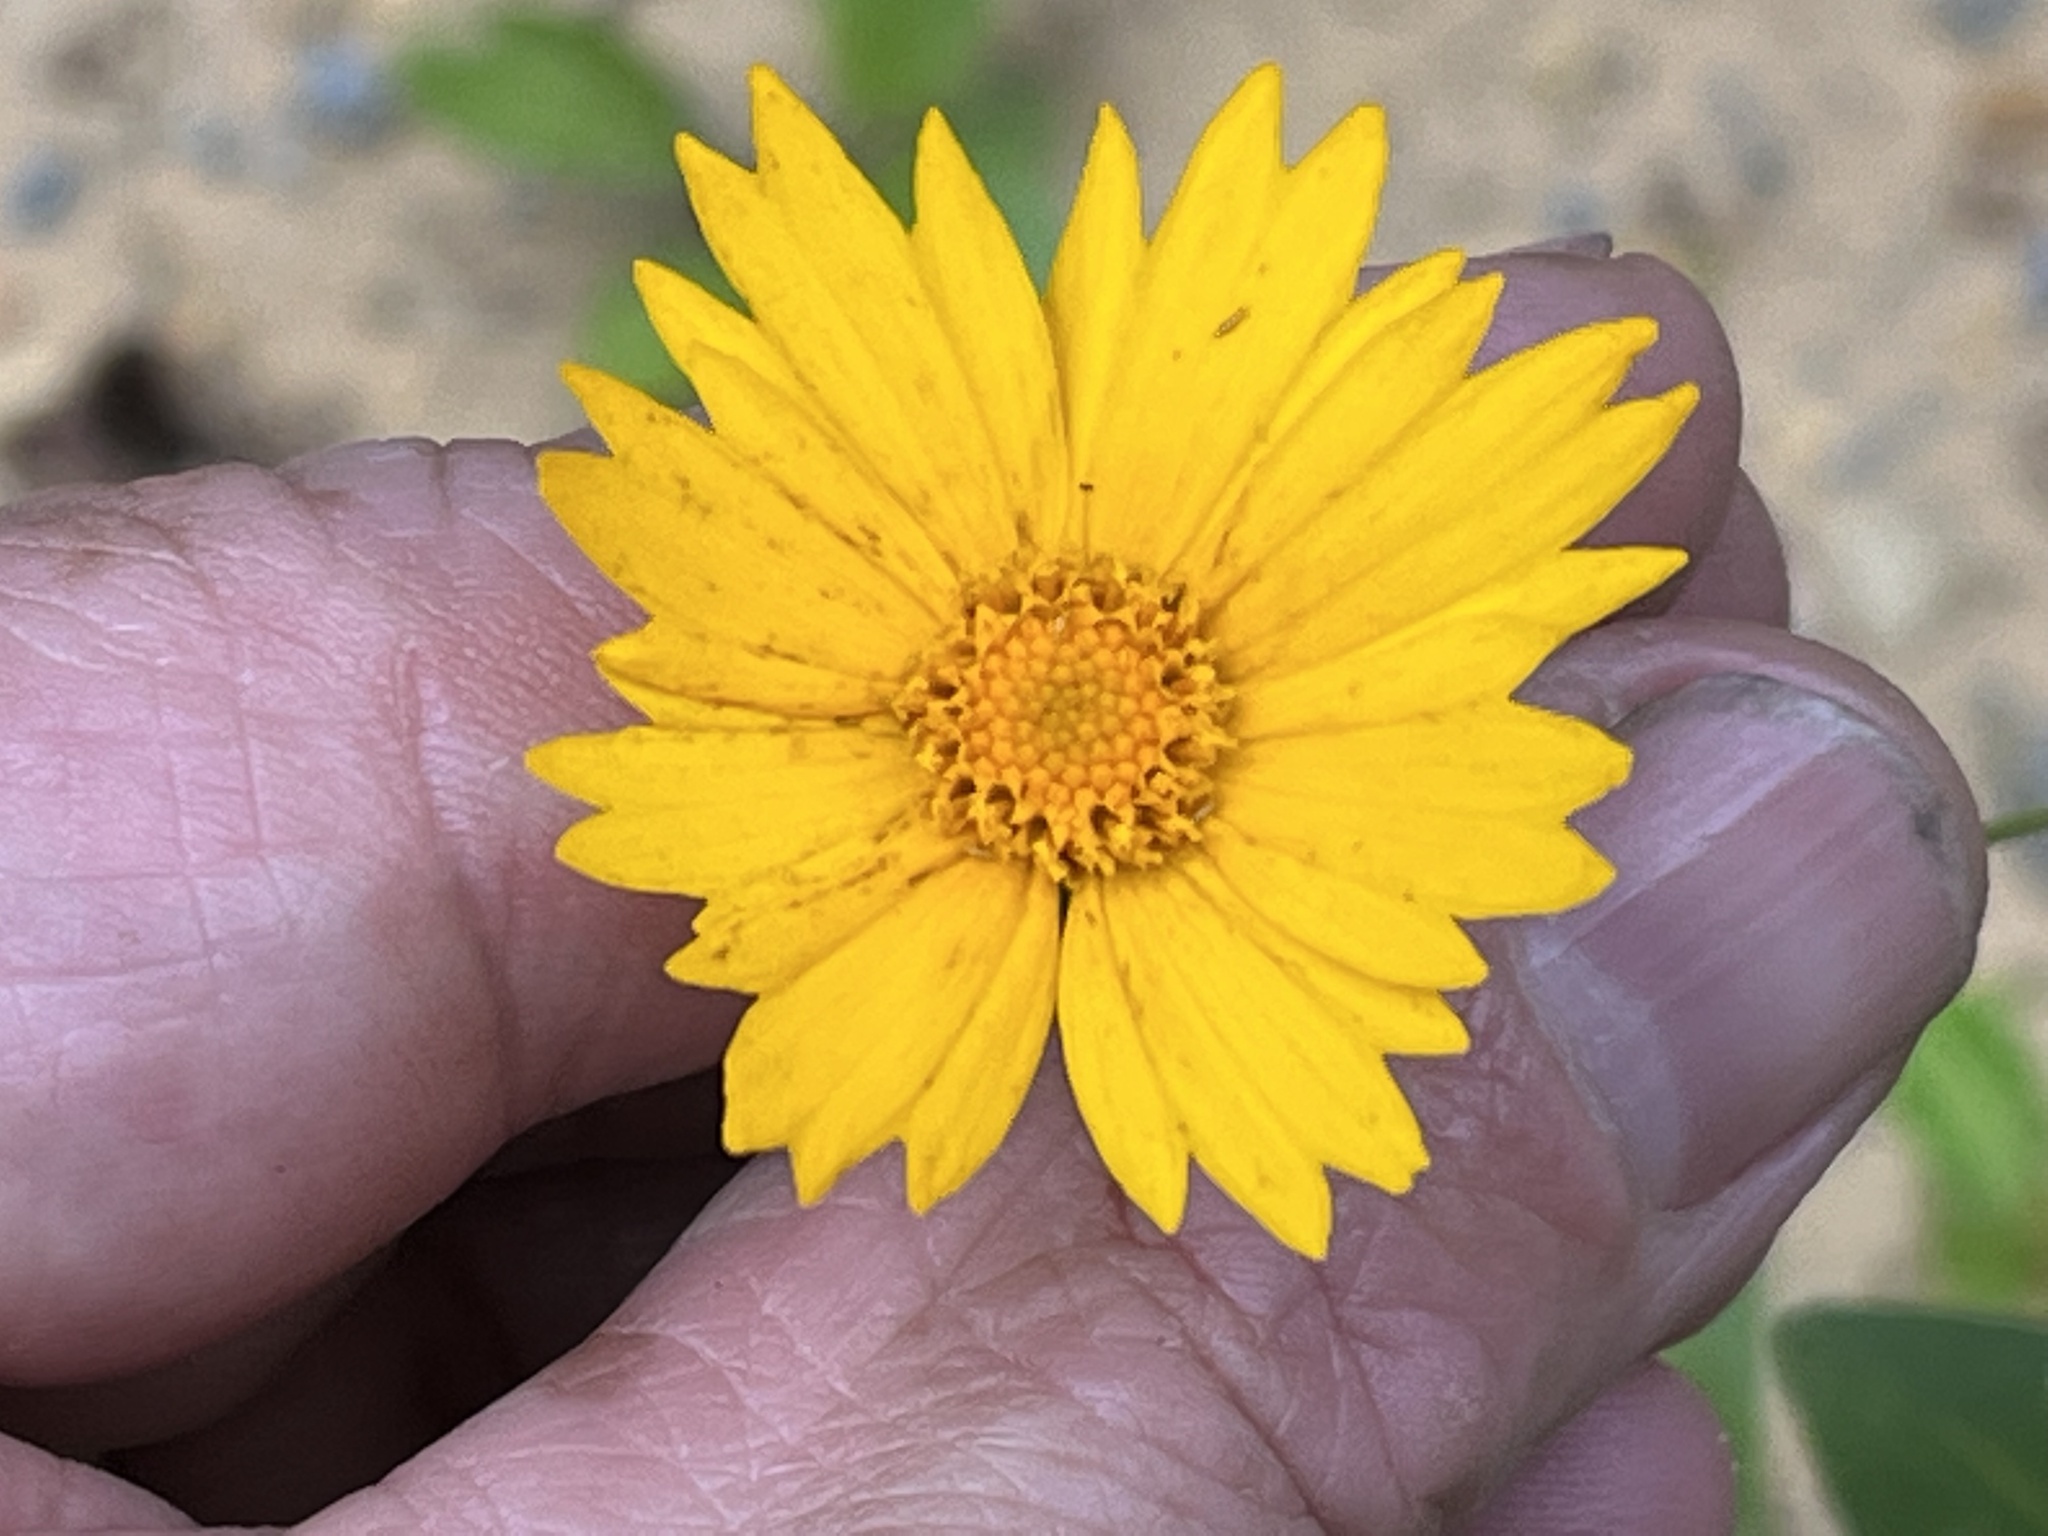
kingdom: Plantae
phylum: Tracheophyta
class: Magnoliopsida
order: Asterales
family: Asteraceae
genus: Coreopsis
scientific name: Coreopsis pubescens
